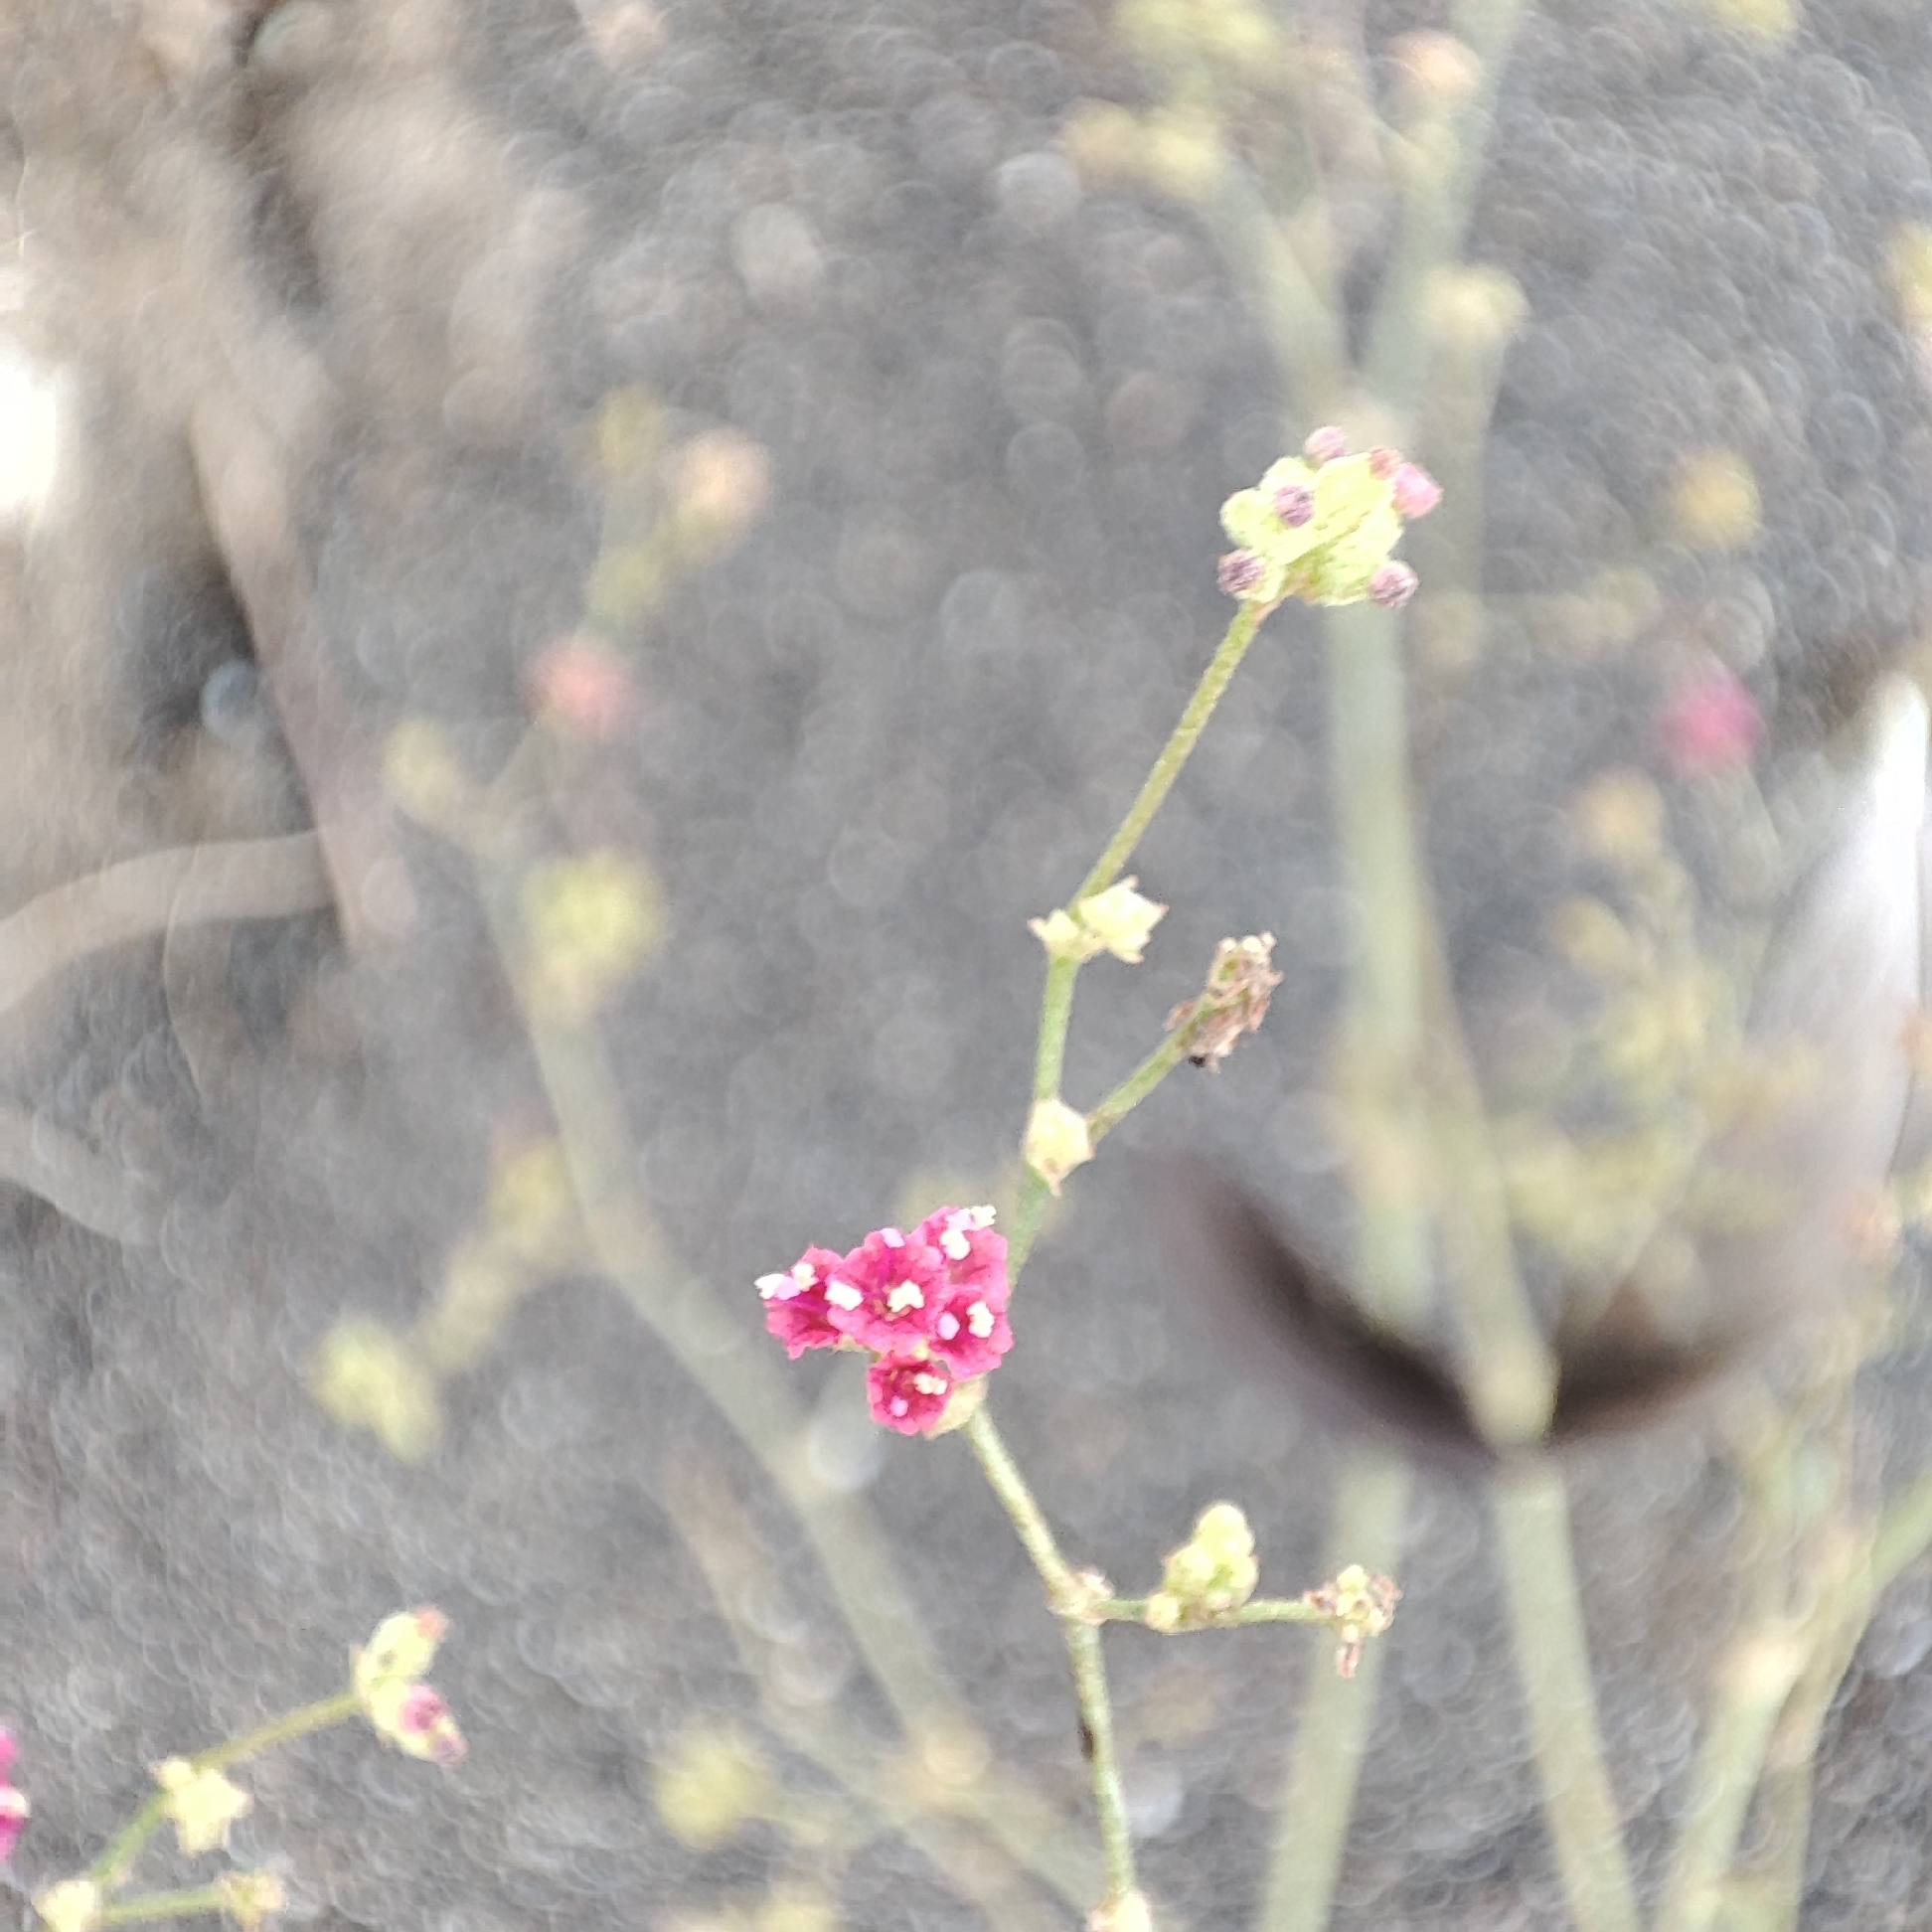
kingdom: Plantae
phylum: Tracheophyta
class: Magnoliopsida
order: Caryophyllales
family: Nyctaginaceae
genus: Boerhavia
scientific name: Boerhavia coccinea
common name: Scarlet spiderling
